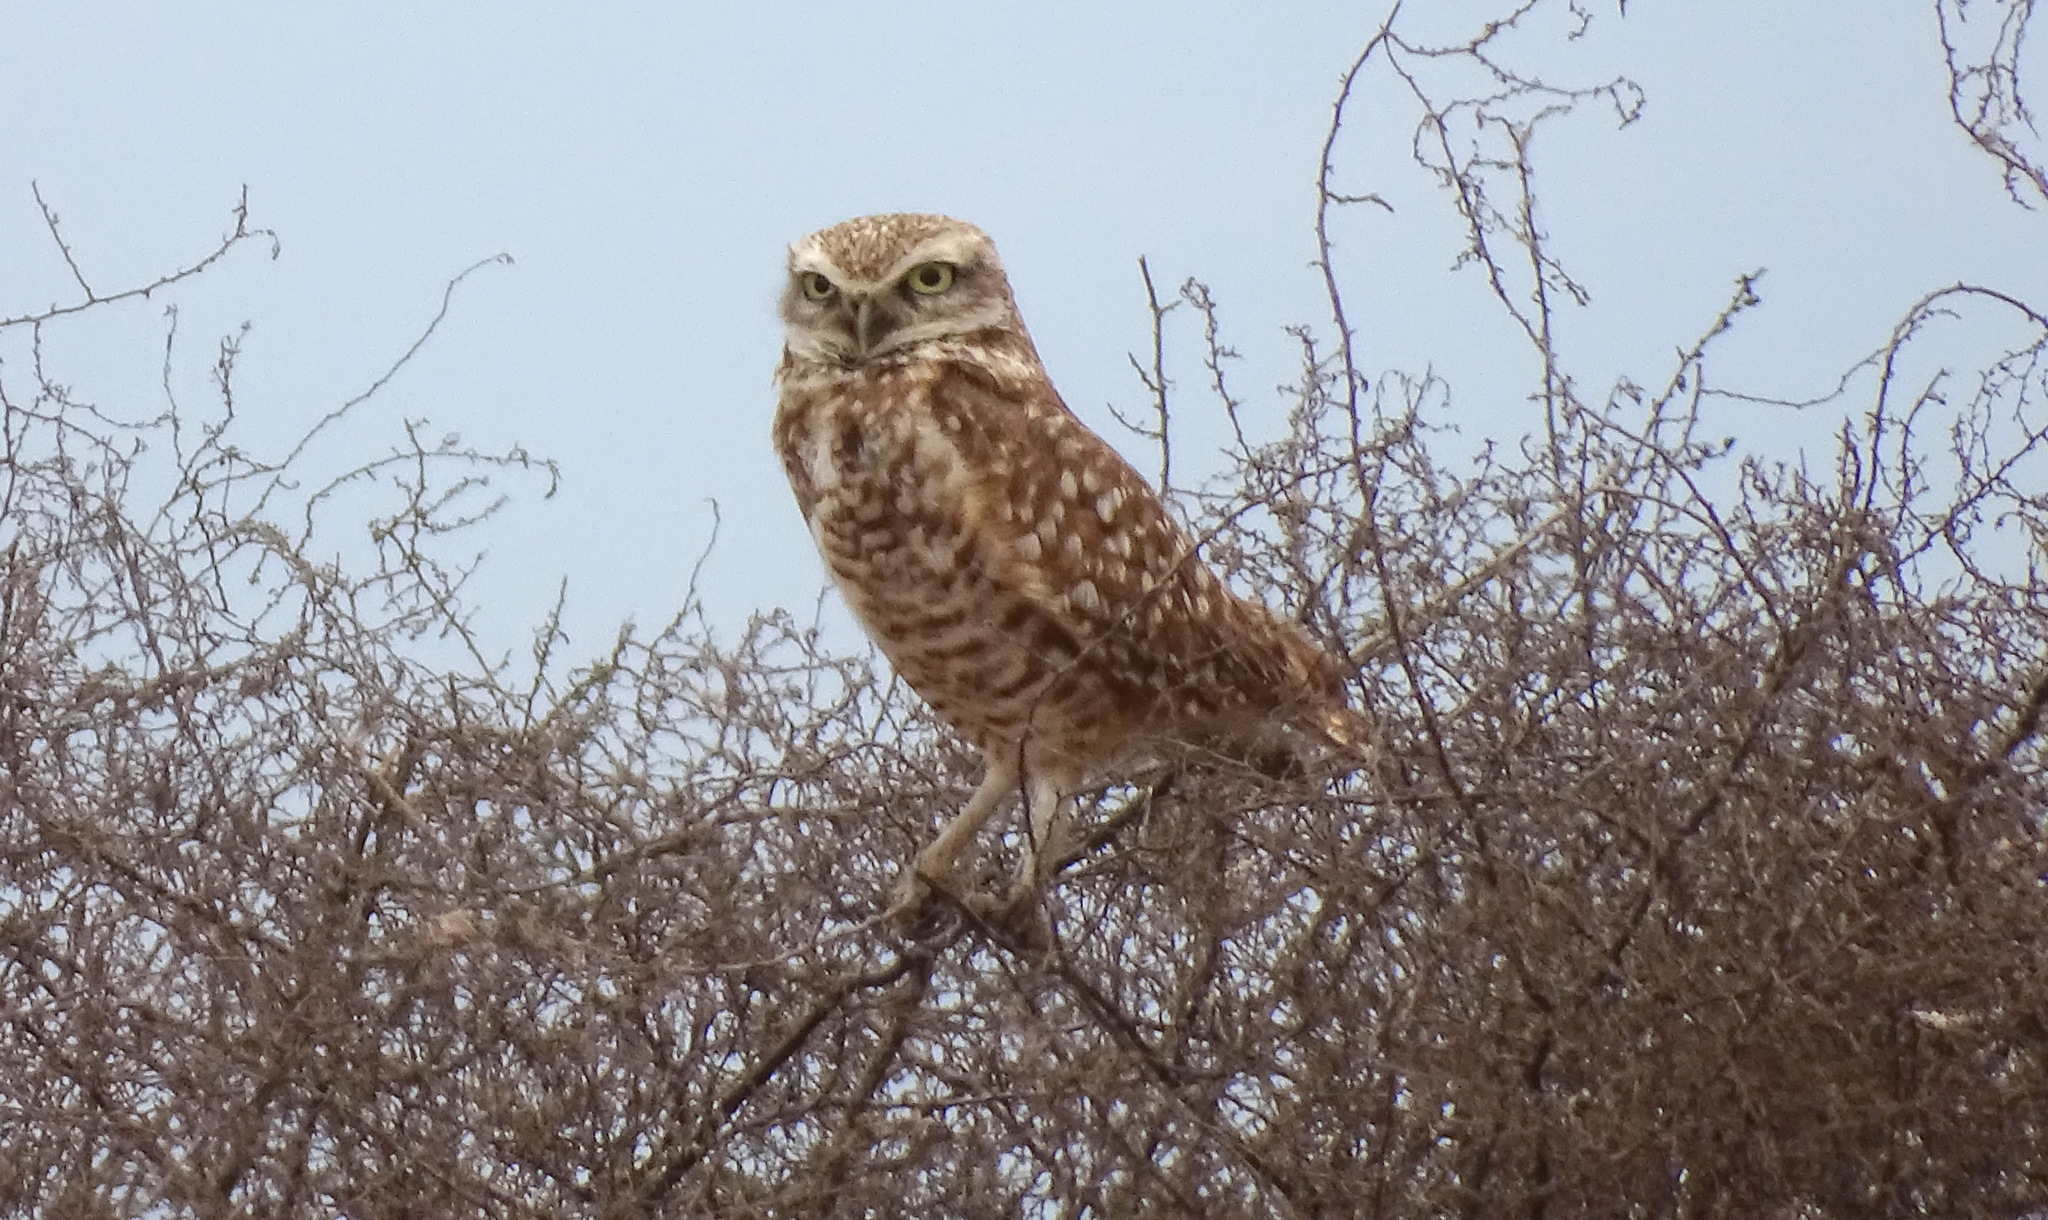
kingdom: Animalia
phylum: Chordata
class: Aves
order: Strigiformes
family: Strigidae
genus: Athene
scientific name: Athene cunicularia
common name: Burrowing owl
